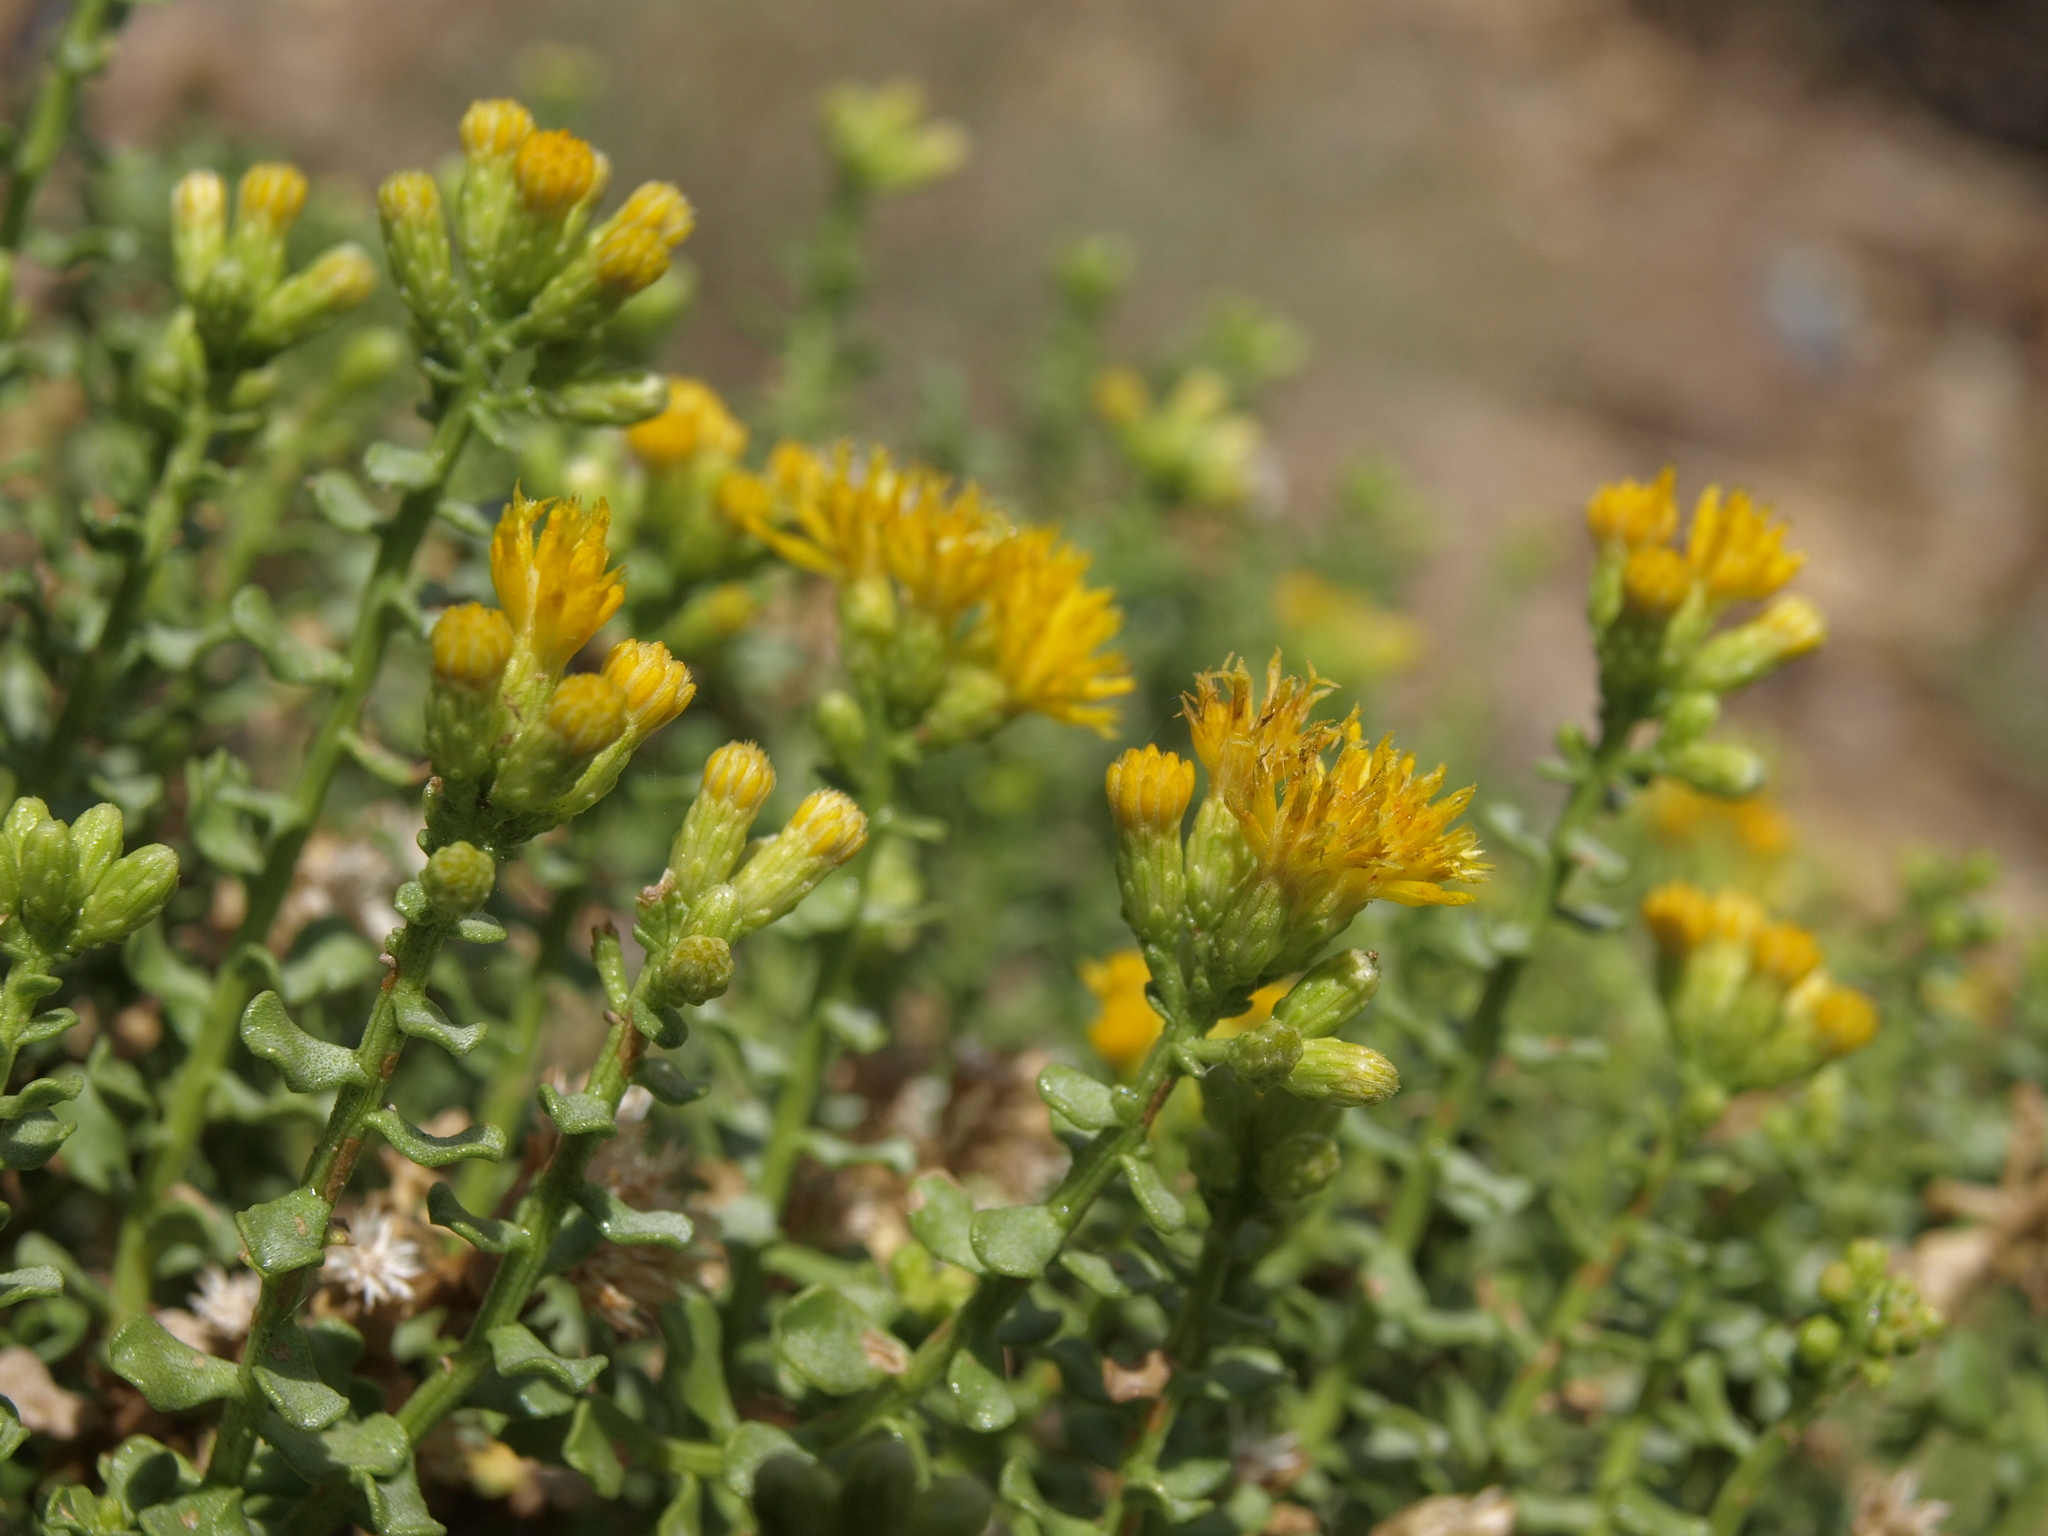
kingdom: Plantae
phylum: Tracheophyta
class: Magnoliopsida
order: Asterales
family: Asteraceae
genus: Ericameria
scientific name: Ericameria cuneata
